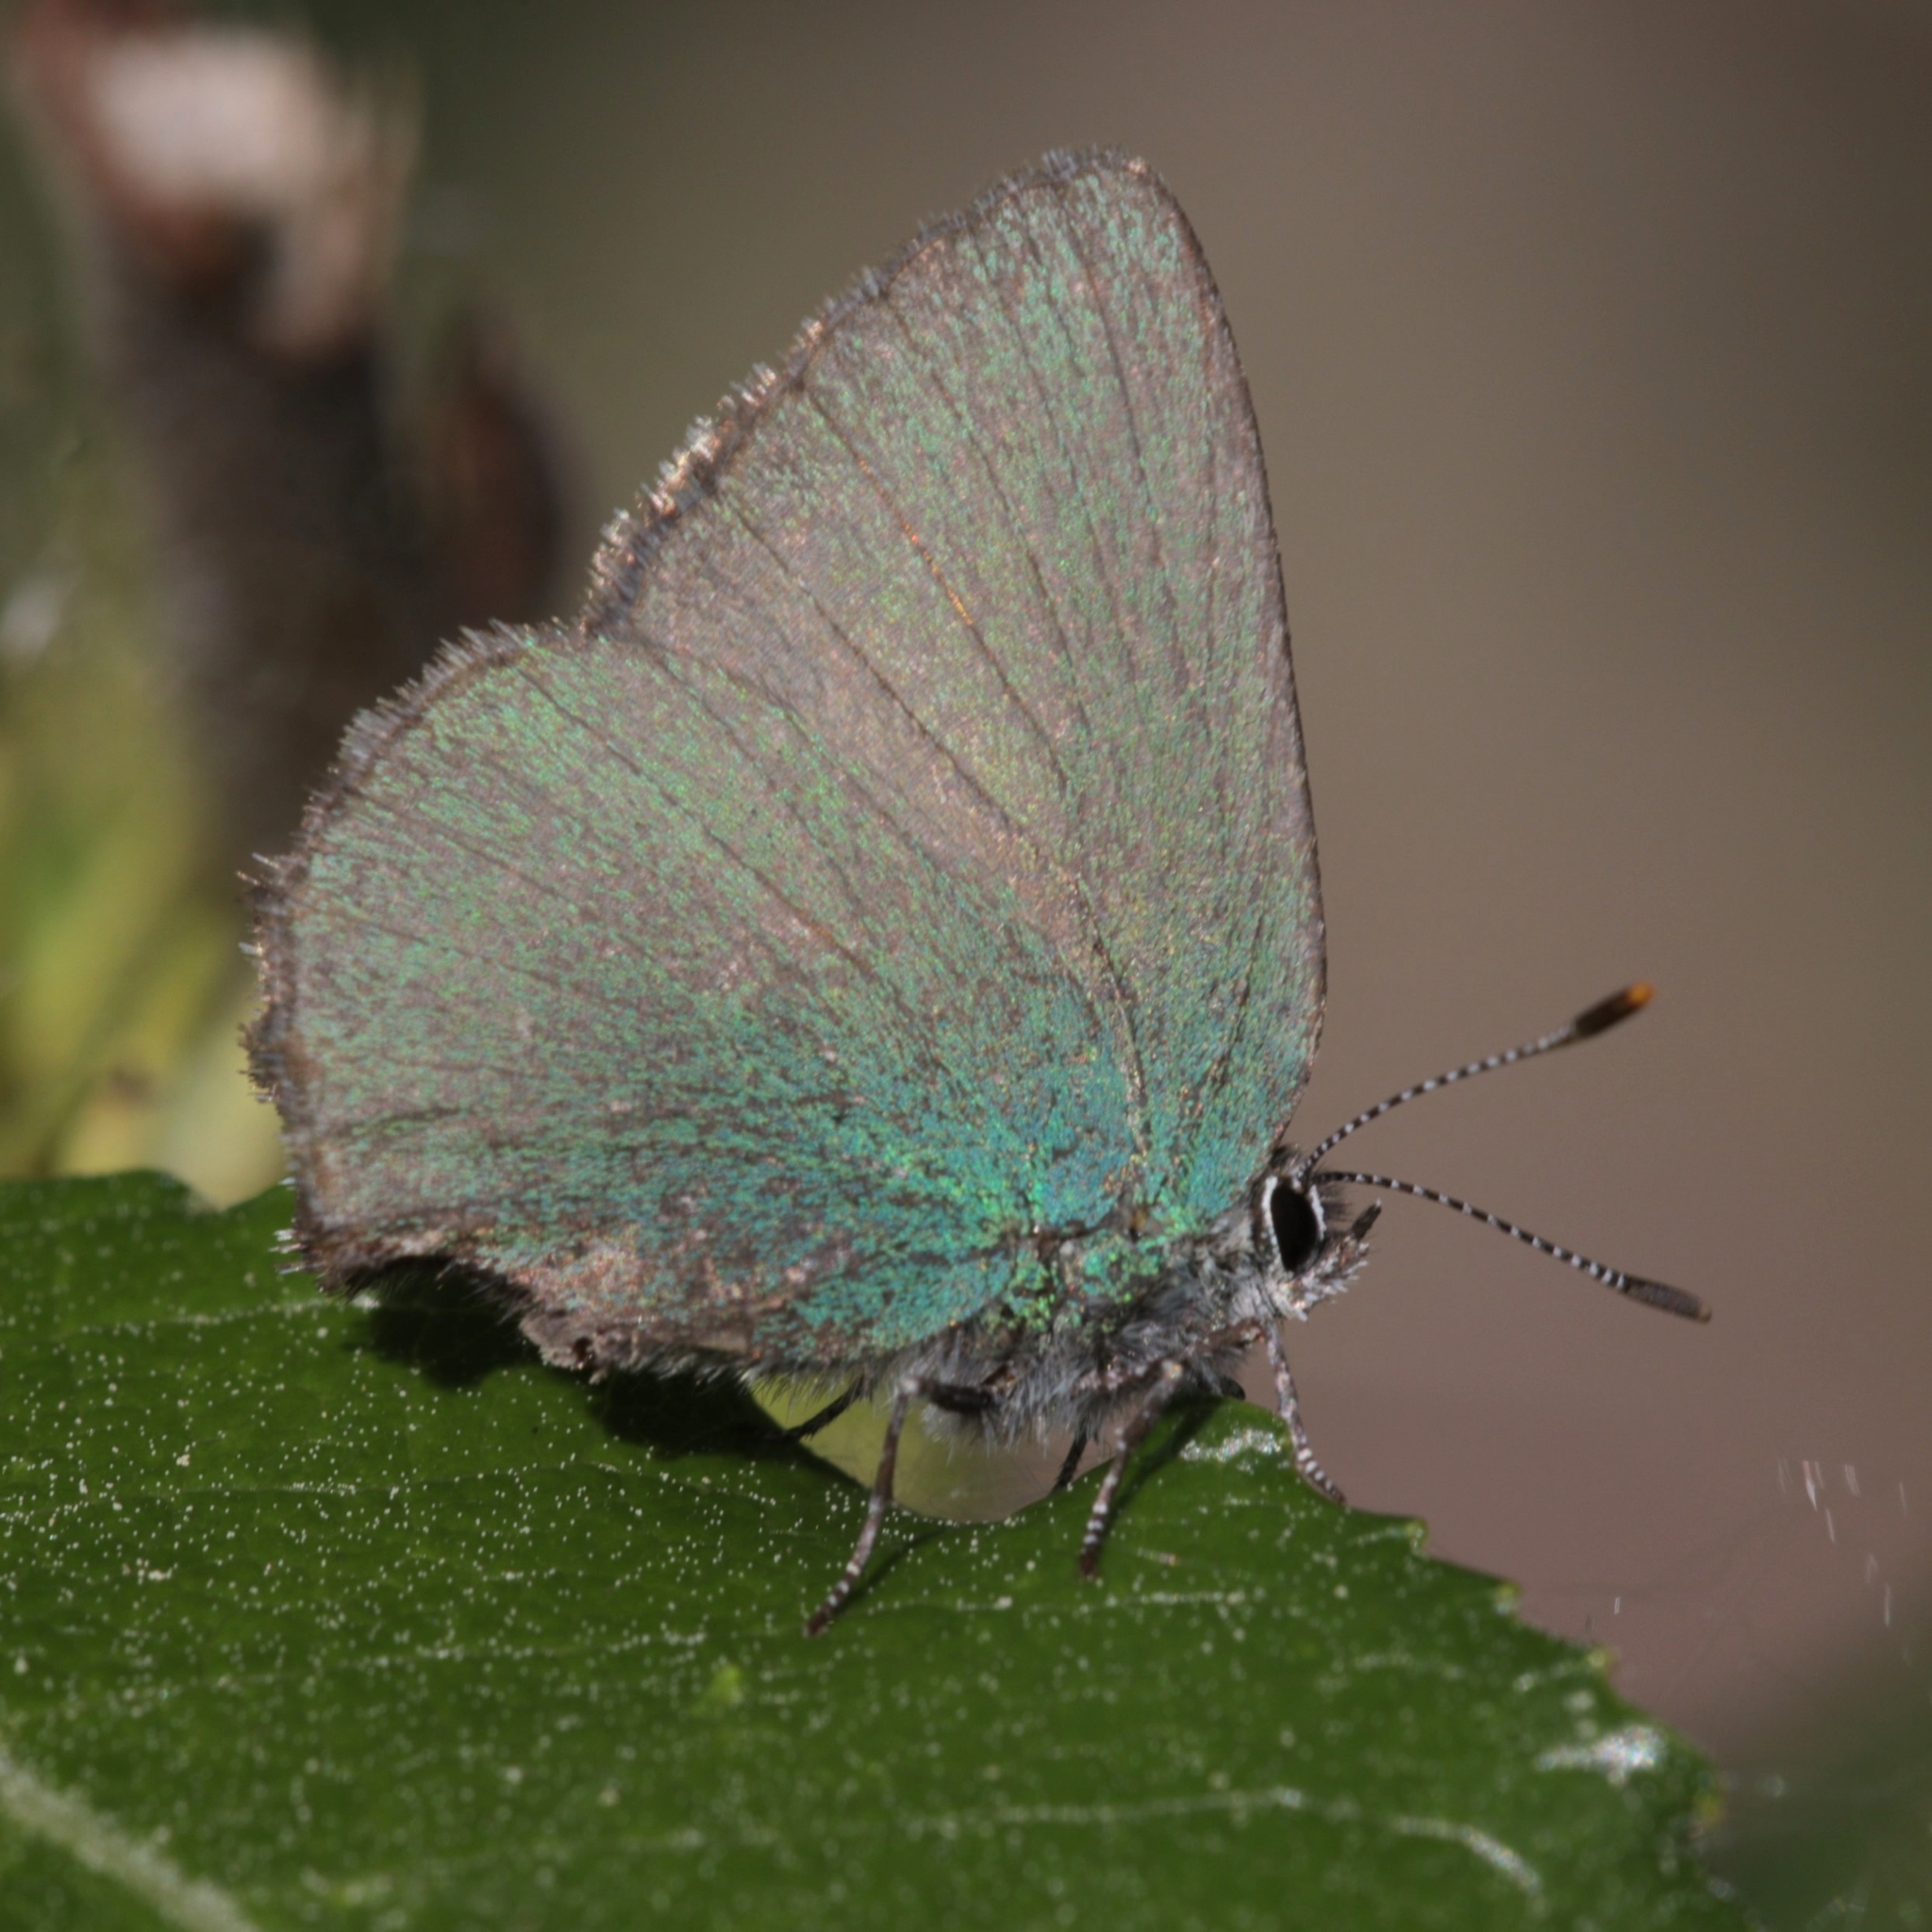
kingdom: Animalia
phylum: Arthropoda
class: Insecta
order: Lepidoptera
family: Lycaenidae
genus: Callophrys
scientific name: Callophrys rubi
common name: Green hairstreak
